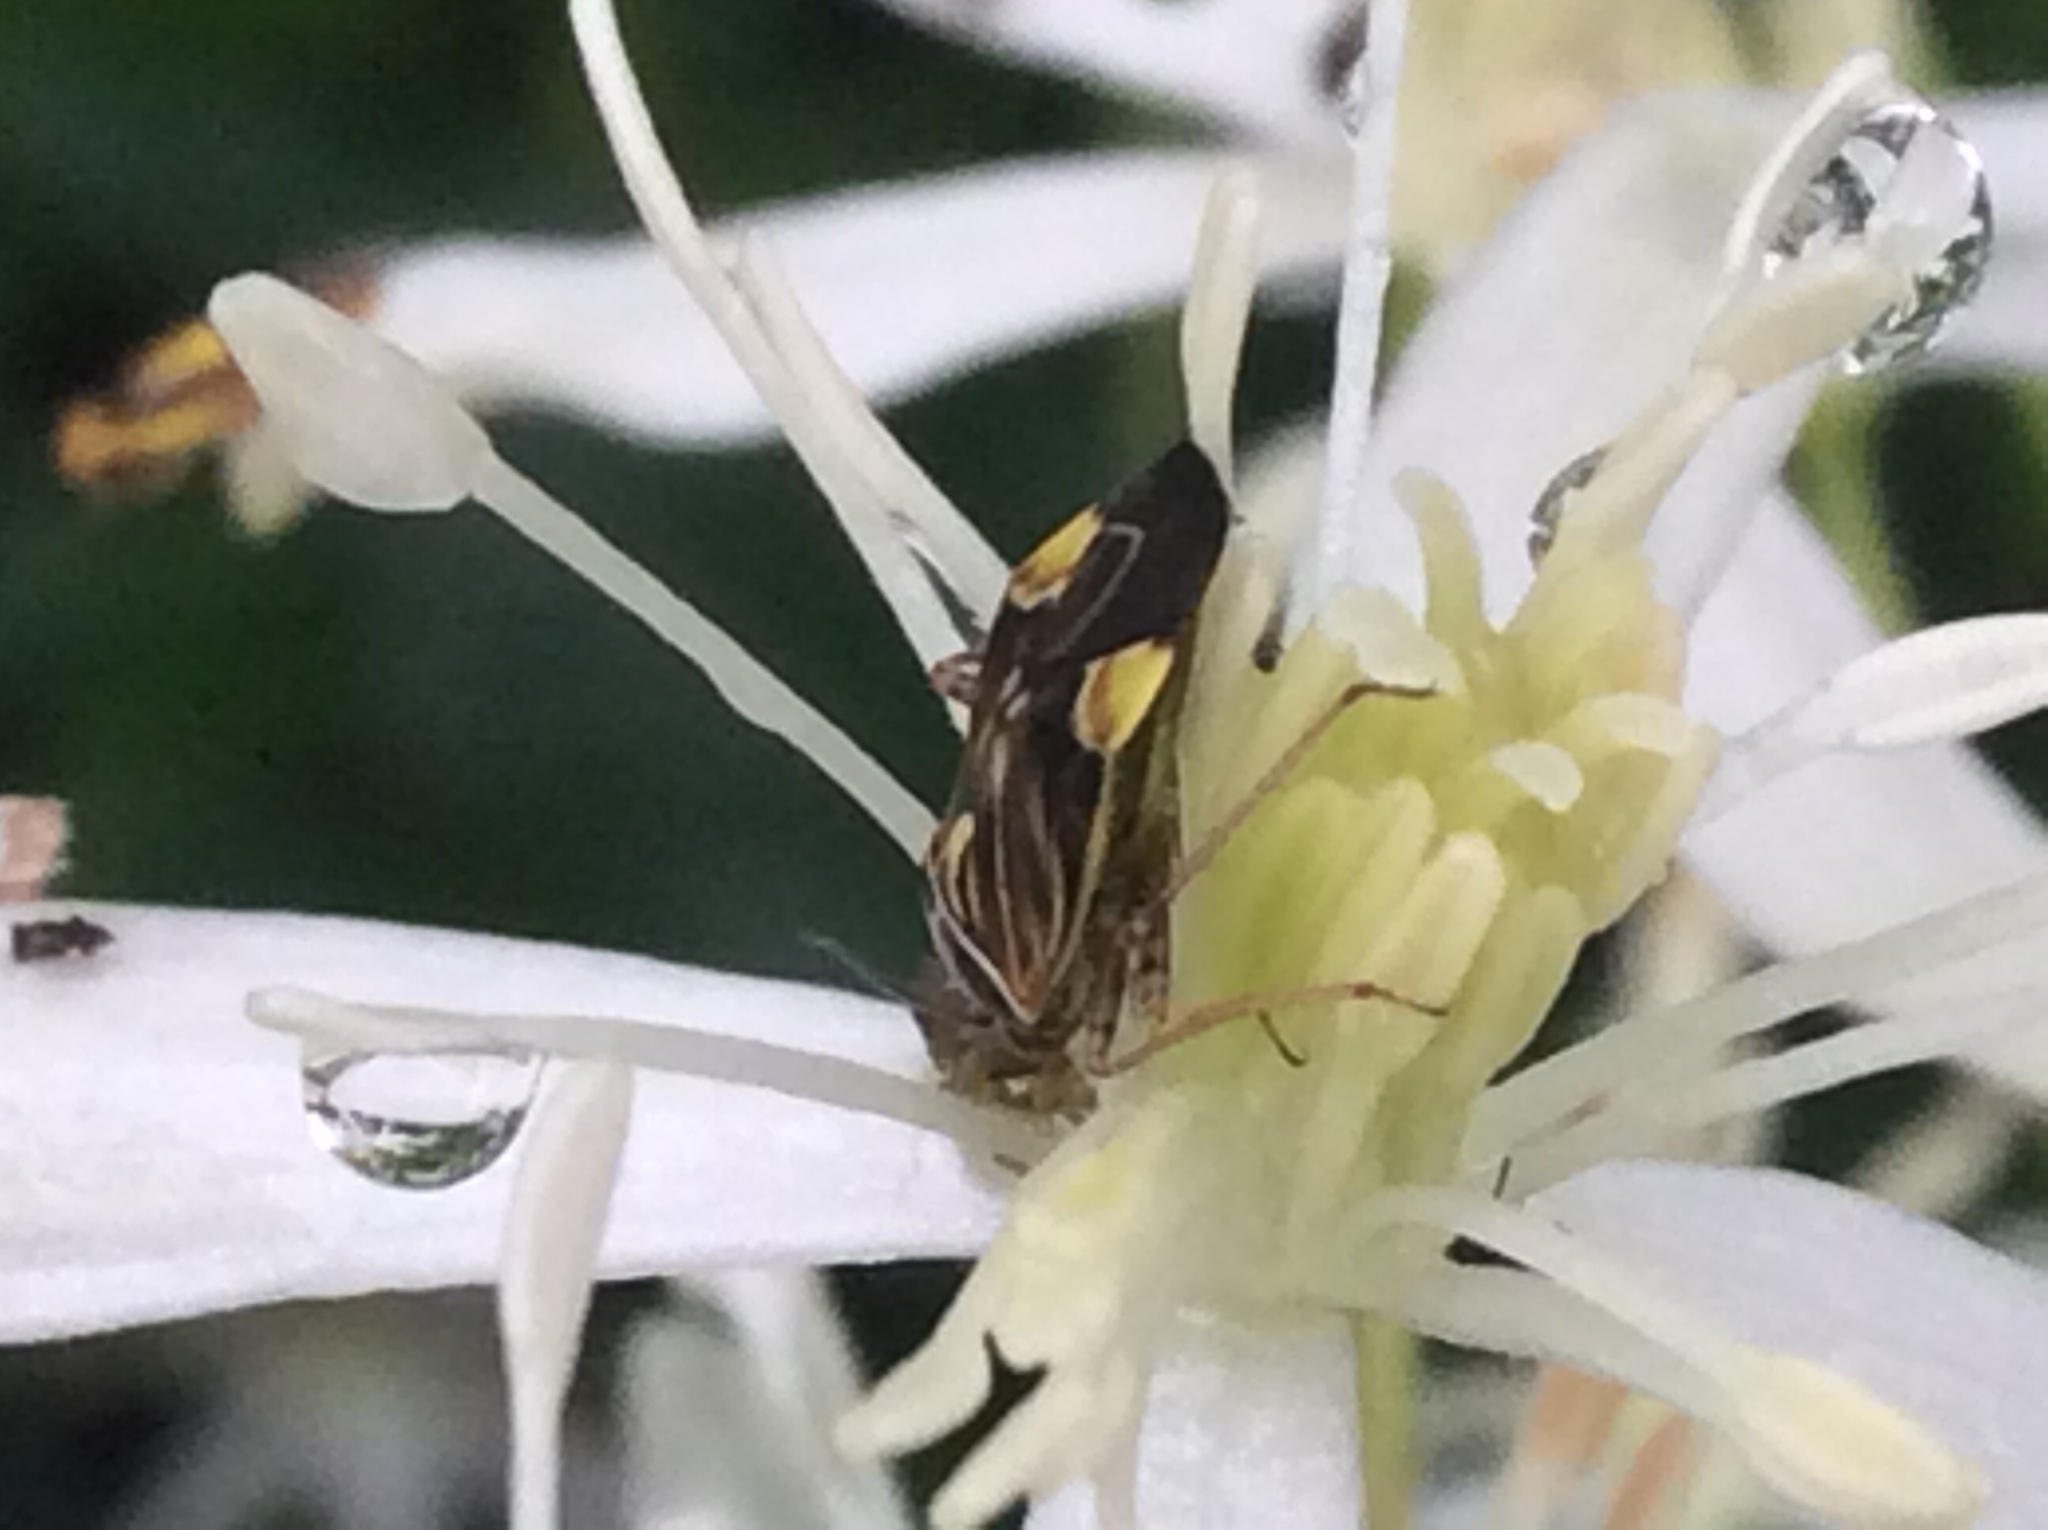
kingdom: Animalia
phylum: Arthropoda
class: Insecta
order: Hemiptera
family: Miridae
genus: Lygus
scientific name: Lygus lineolaris
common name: North american tarnished plant bug
